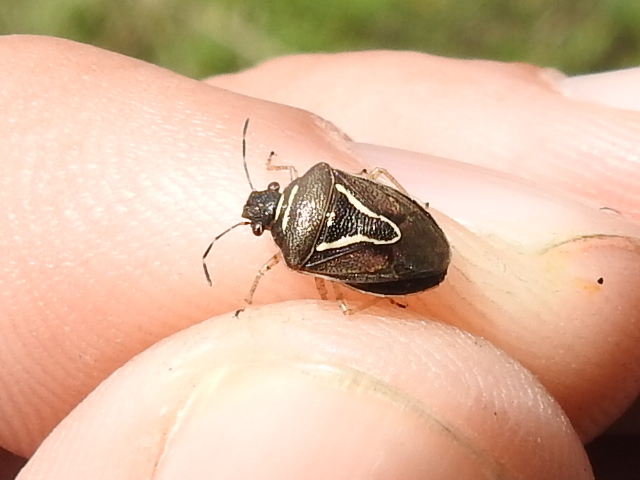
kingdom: Animalia
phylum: Arthropoda
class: Insecta
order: Hemiptera
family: Pentatomidae
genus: Mormidea
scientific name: Mormidea lugens
